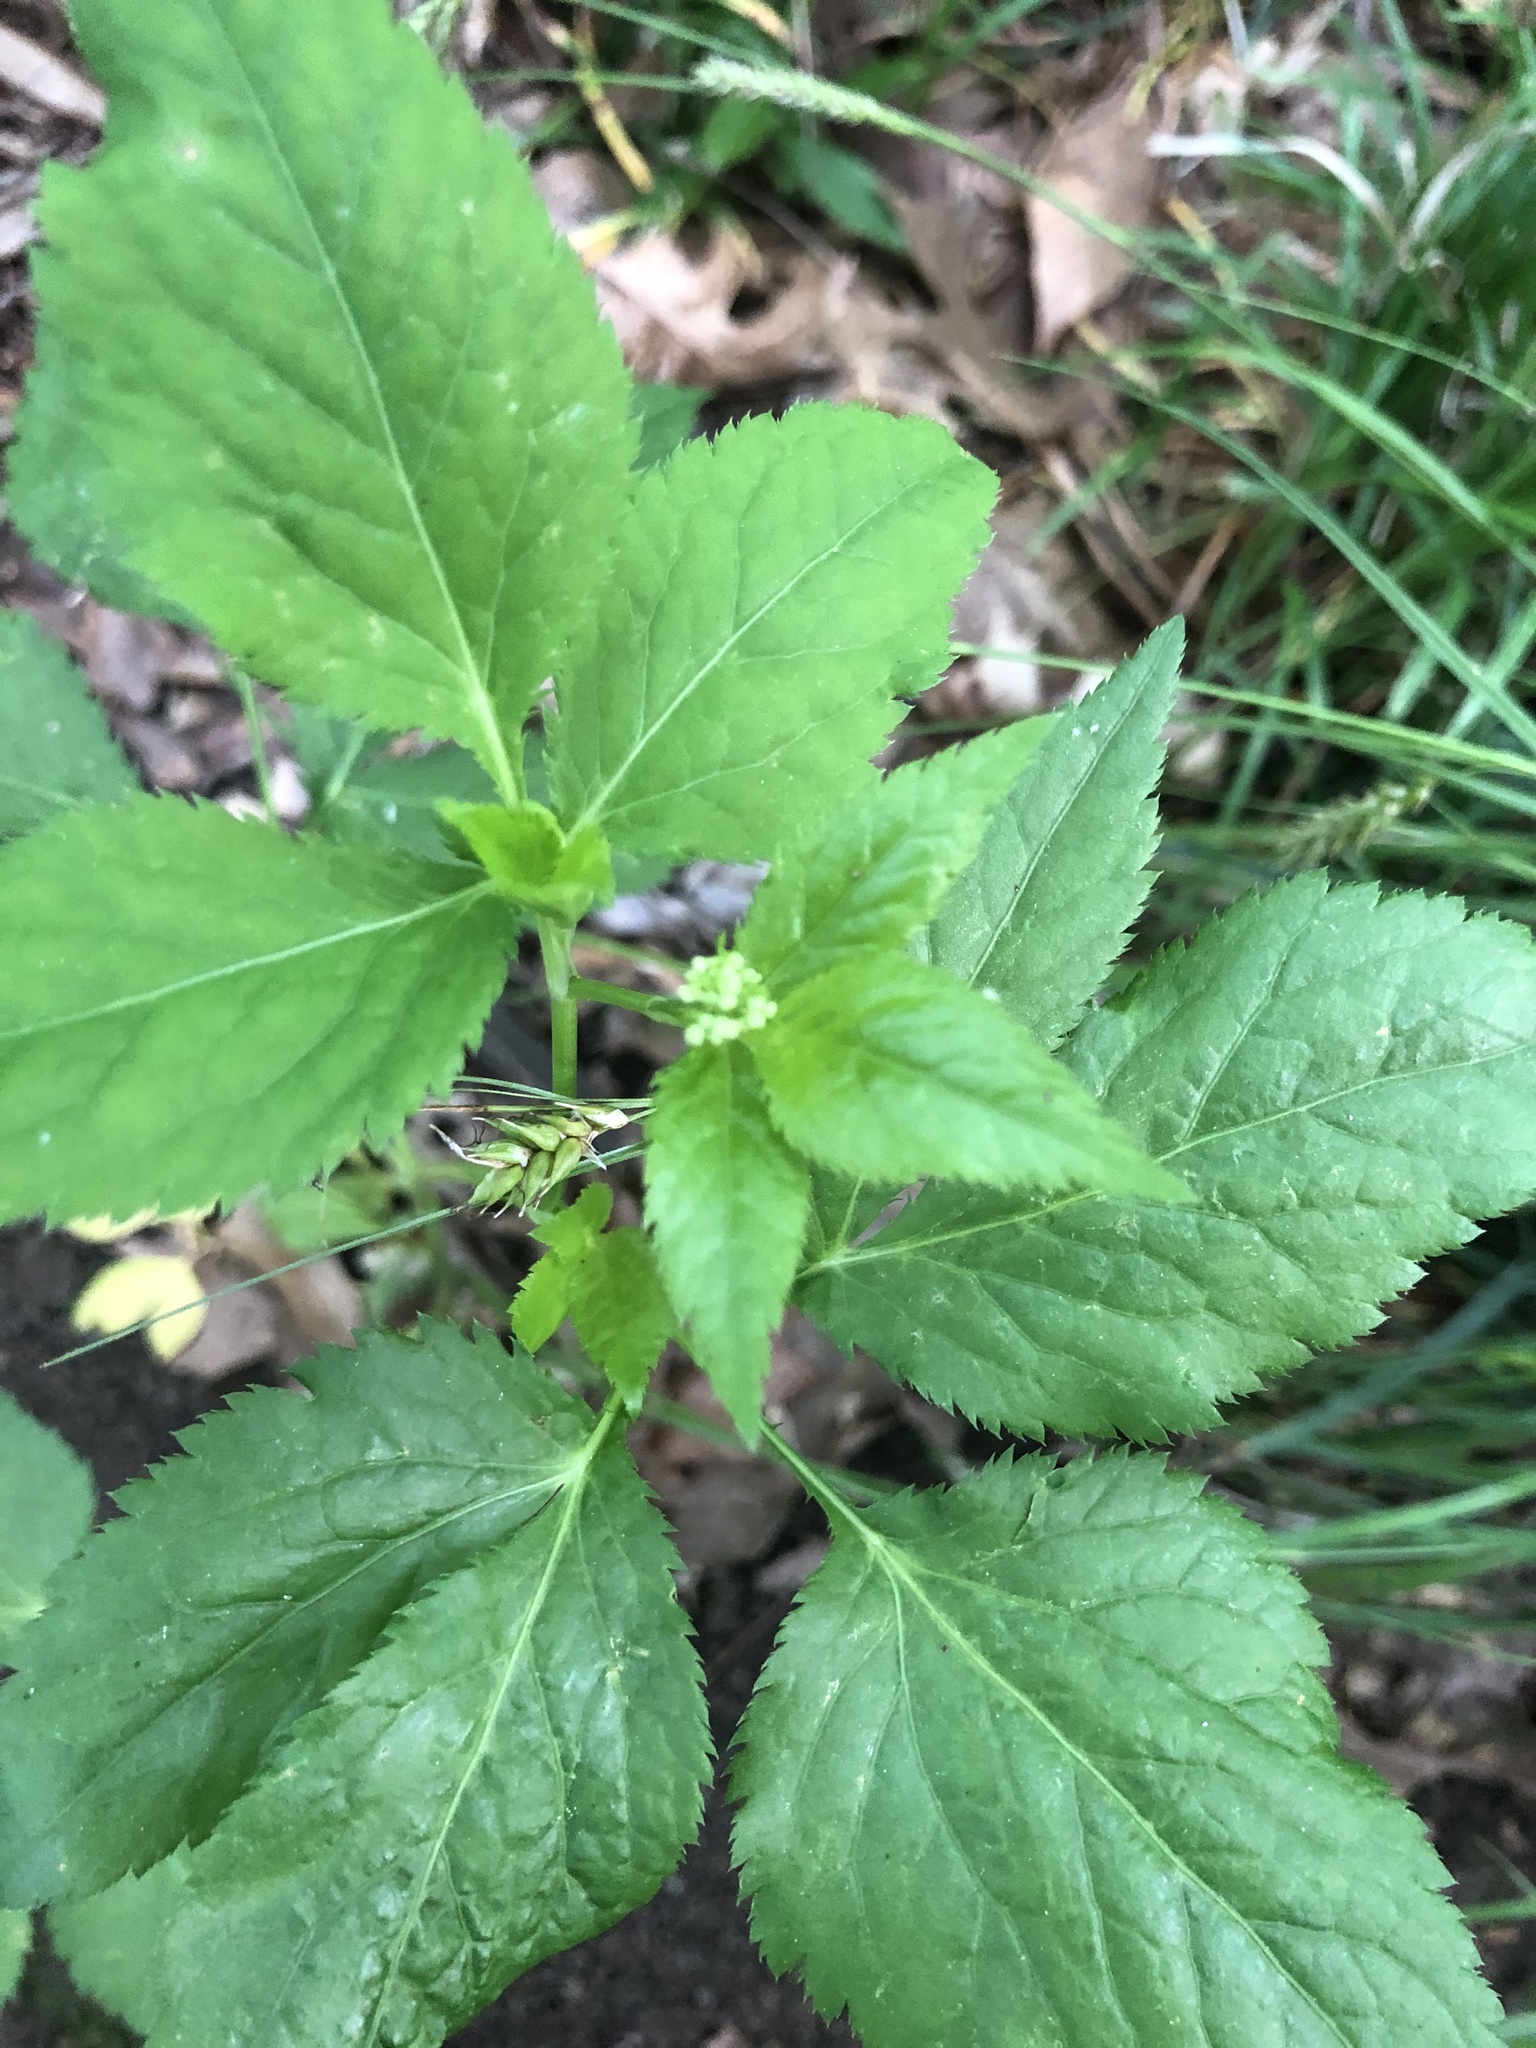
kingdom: Plantae
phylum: Tracheophyta
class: Magnoliopsida
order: Apiales
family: Apiaceae
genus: Cryptotaenia
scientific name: Cryptotaenia canadensis
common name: Honewort
